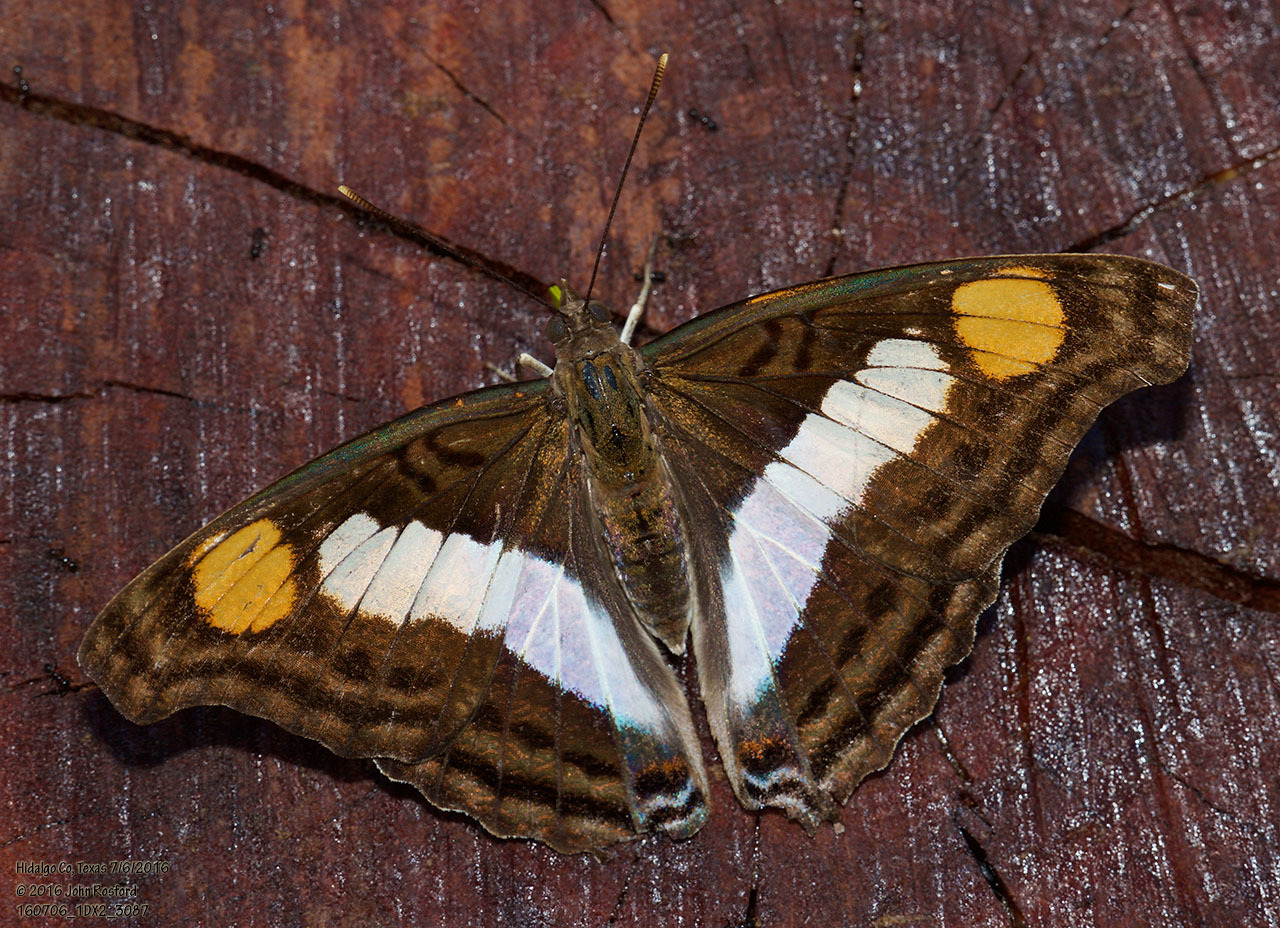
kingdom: Animalia
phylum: Arthropoda
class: Insecta
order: Lepidoptera
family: Nymphalidae
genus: Doxocopa
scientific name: Doxocopa laure
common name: Silver emperor
